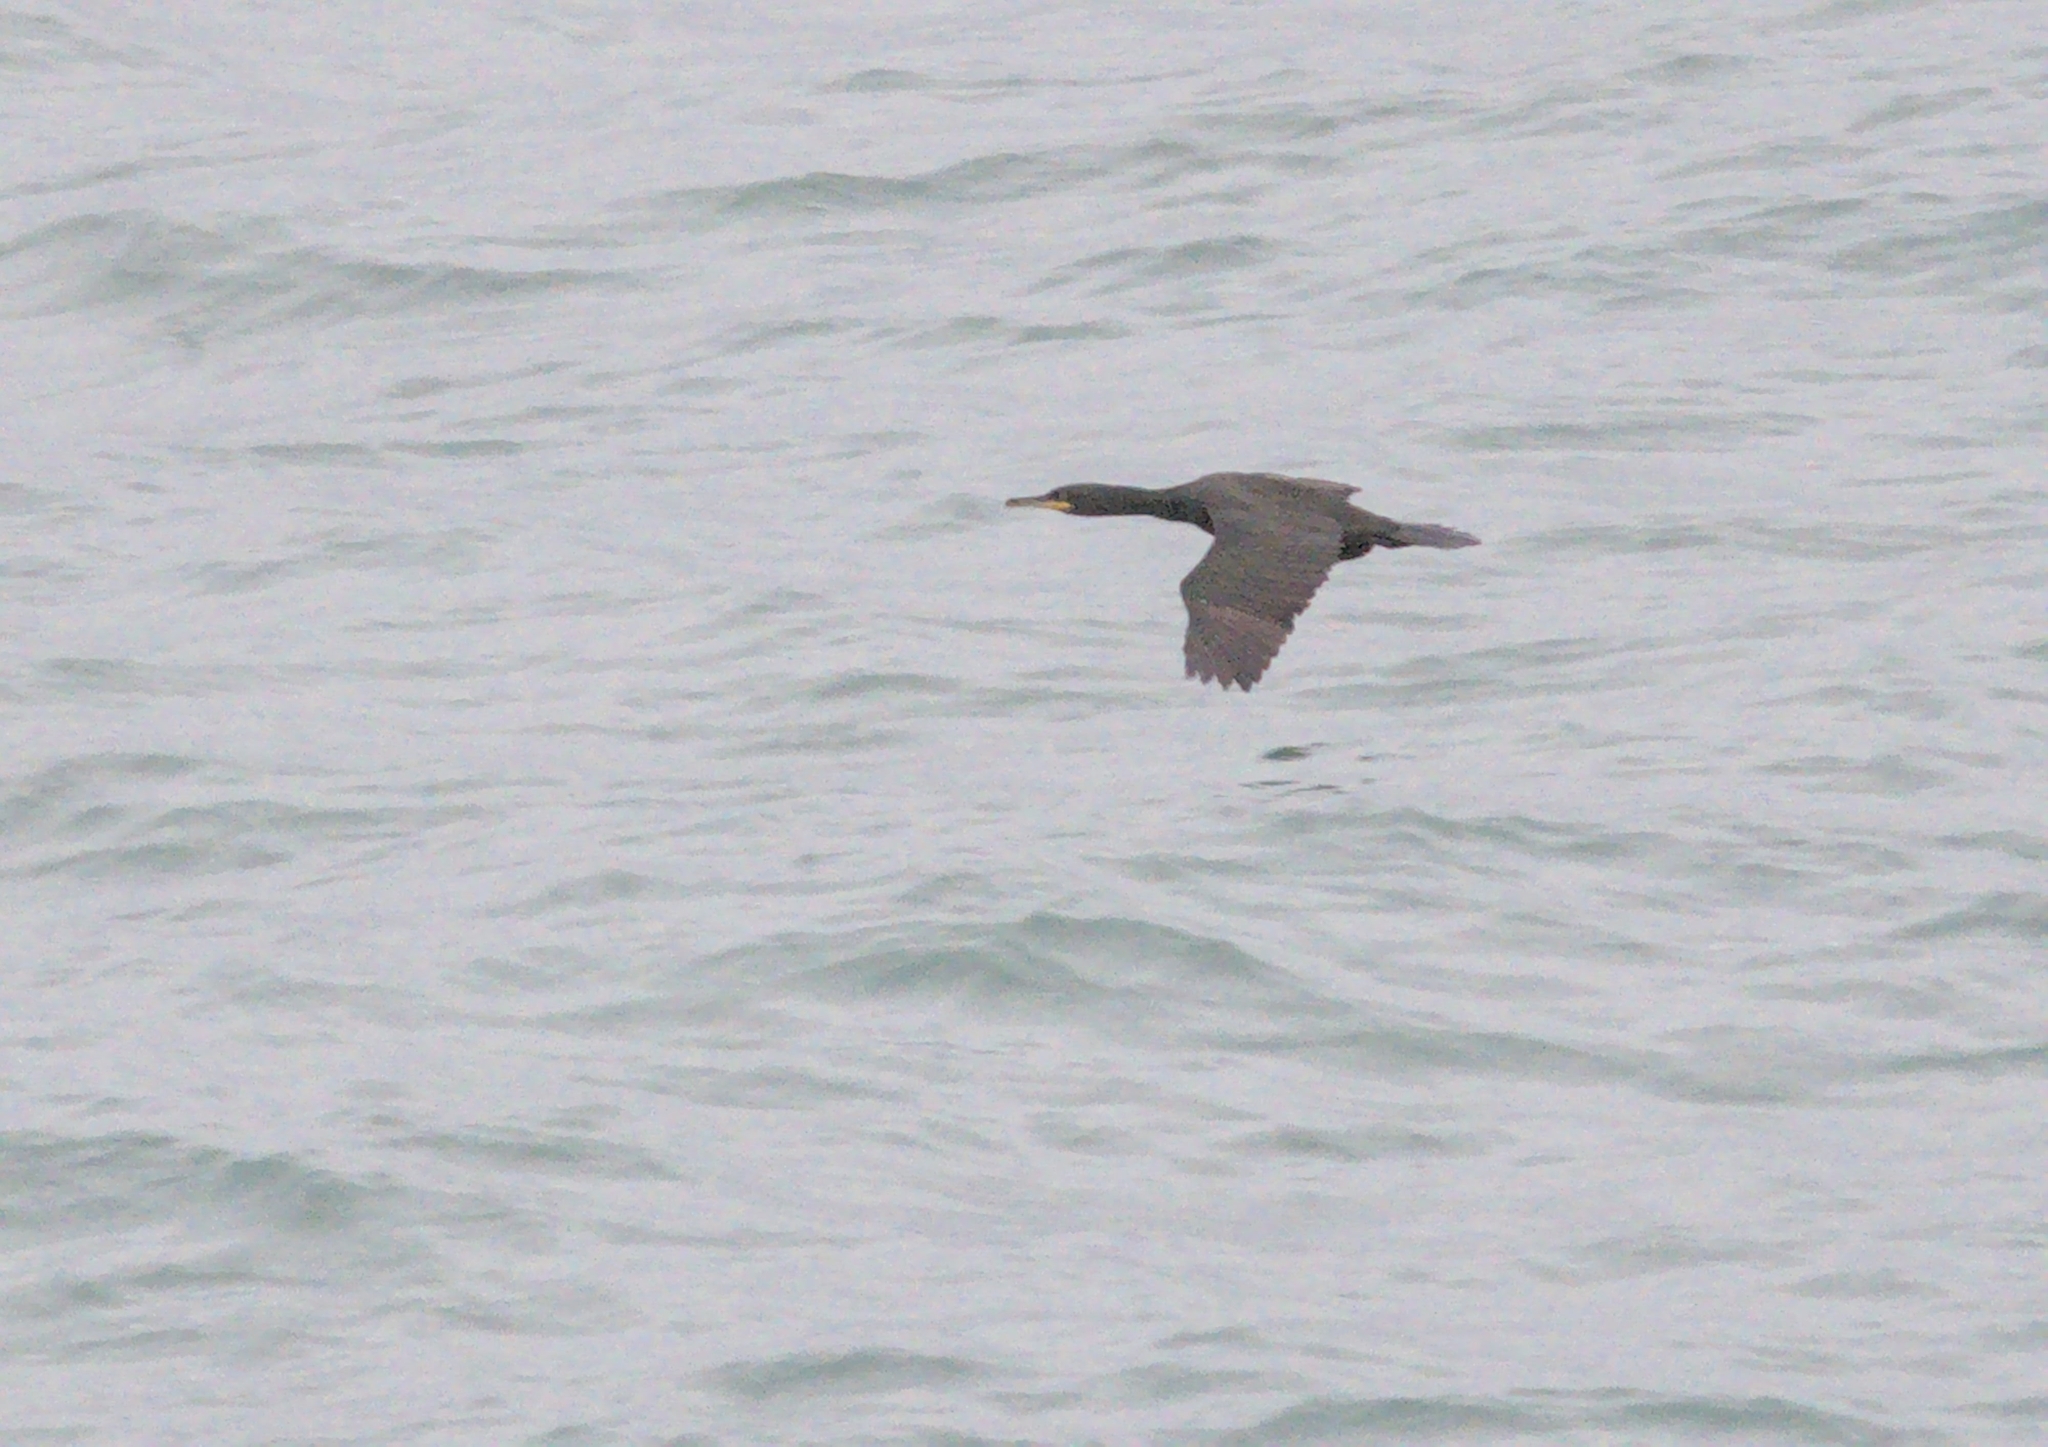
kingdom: Animalia
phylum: Chordata
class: Aves
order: Suliformes
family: Phalacrocoracidae
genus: Phalacrocorax
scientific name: Phalacrocorax aristotelis
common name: European shag
